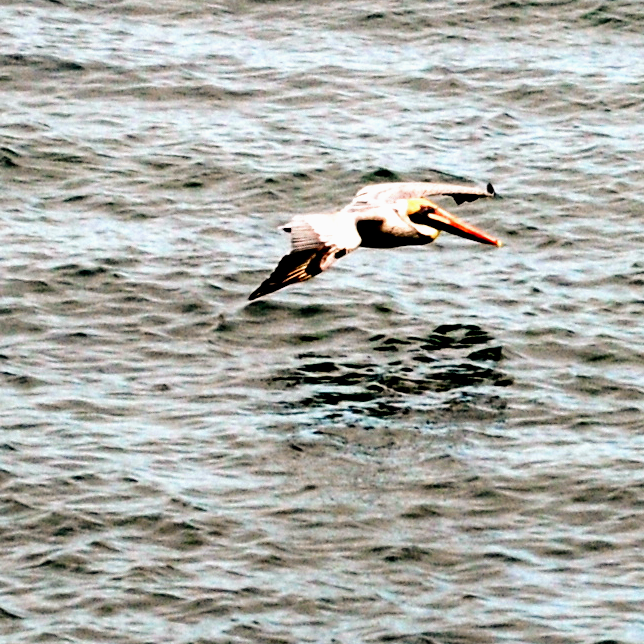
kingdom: Animalia
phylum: Chordata
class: Aves
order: Pelecaniformes
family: Pelecanidae
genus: Pelecanus
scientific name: Pelecanus occidentalis
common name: Brown pelican
